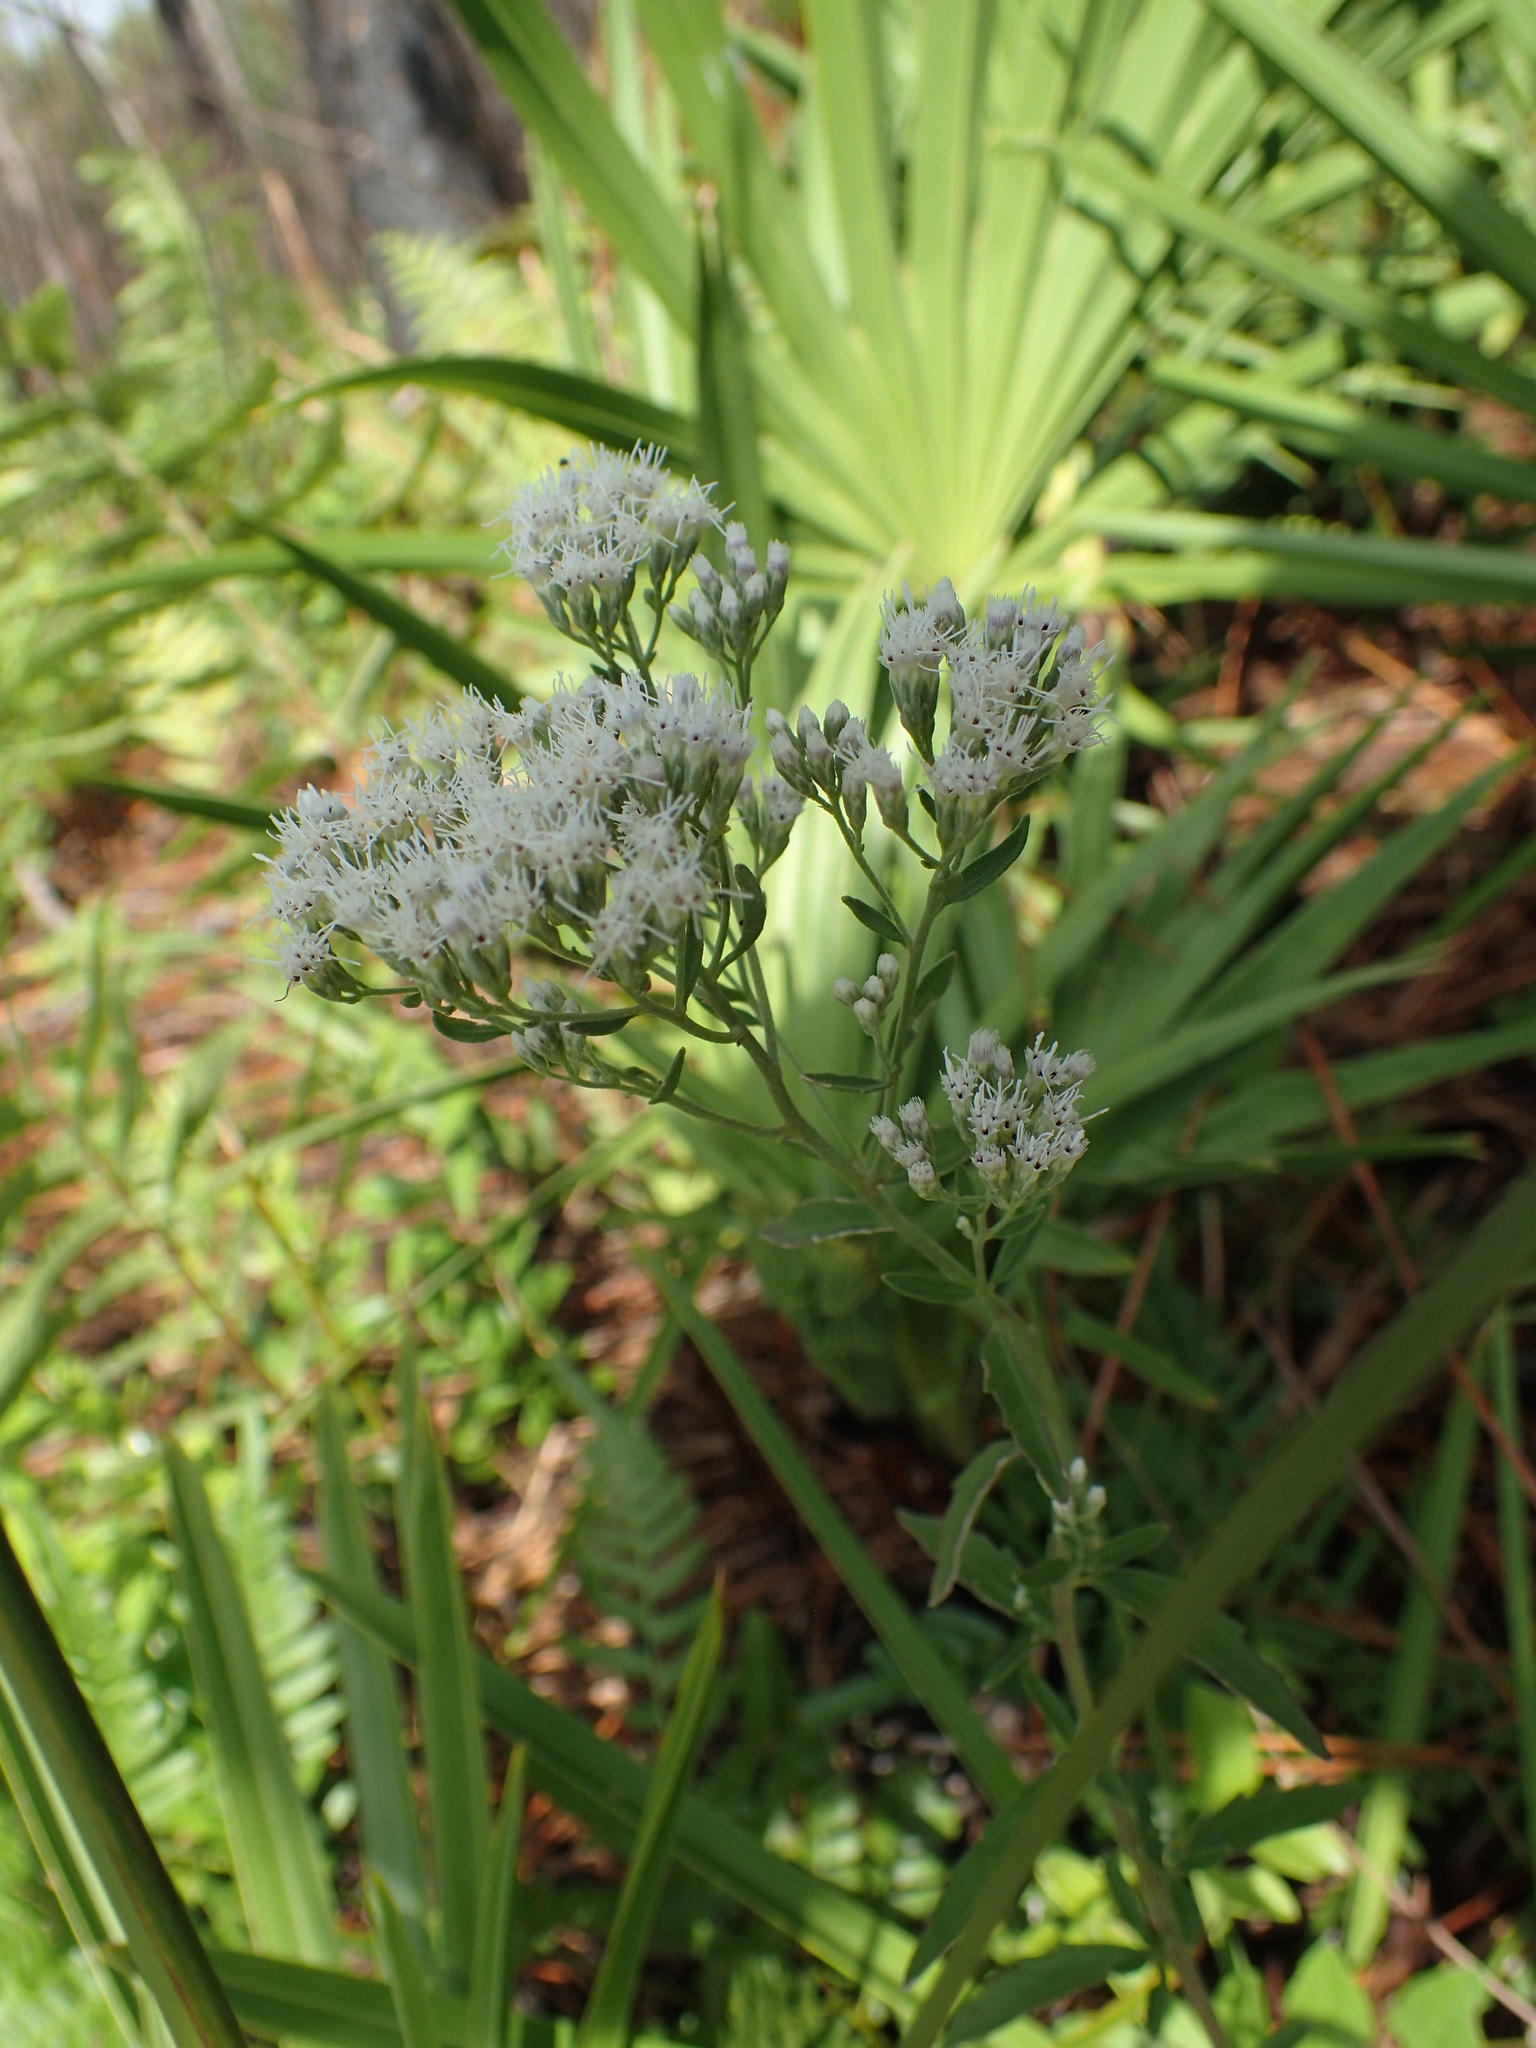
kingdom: Plantae
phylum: Tracheophyta
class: Magnoliopsida
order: Asterales
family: Asteraceae
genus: Eupatorium
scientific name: Eupatorium mohrii
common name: Mohr's thoroughwort
